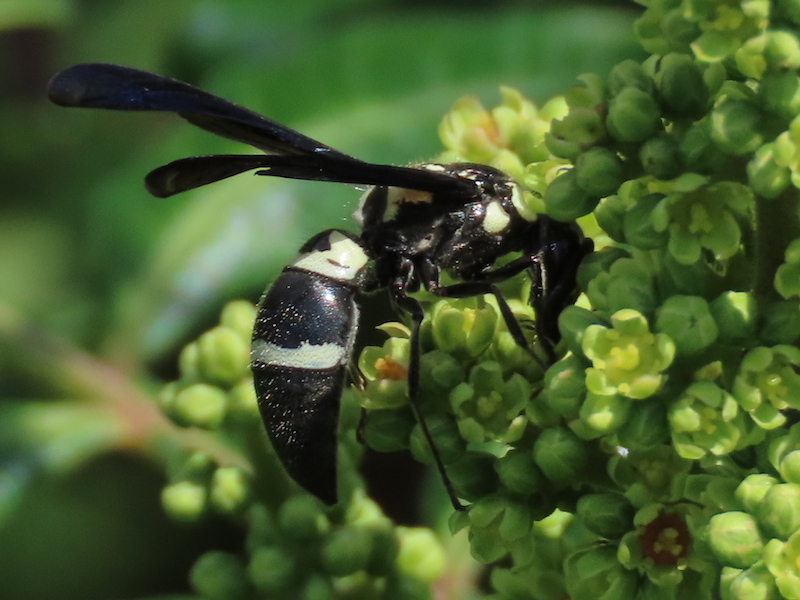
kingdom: Animalia
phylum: Arthropoda
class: Insecta
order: Hymenoptera
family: Eumenidae
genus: Pseudodynerus
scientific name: Pseudodynerus quadrisectus
